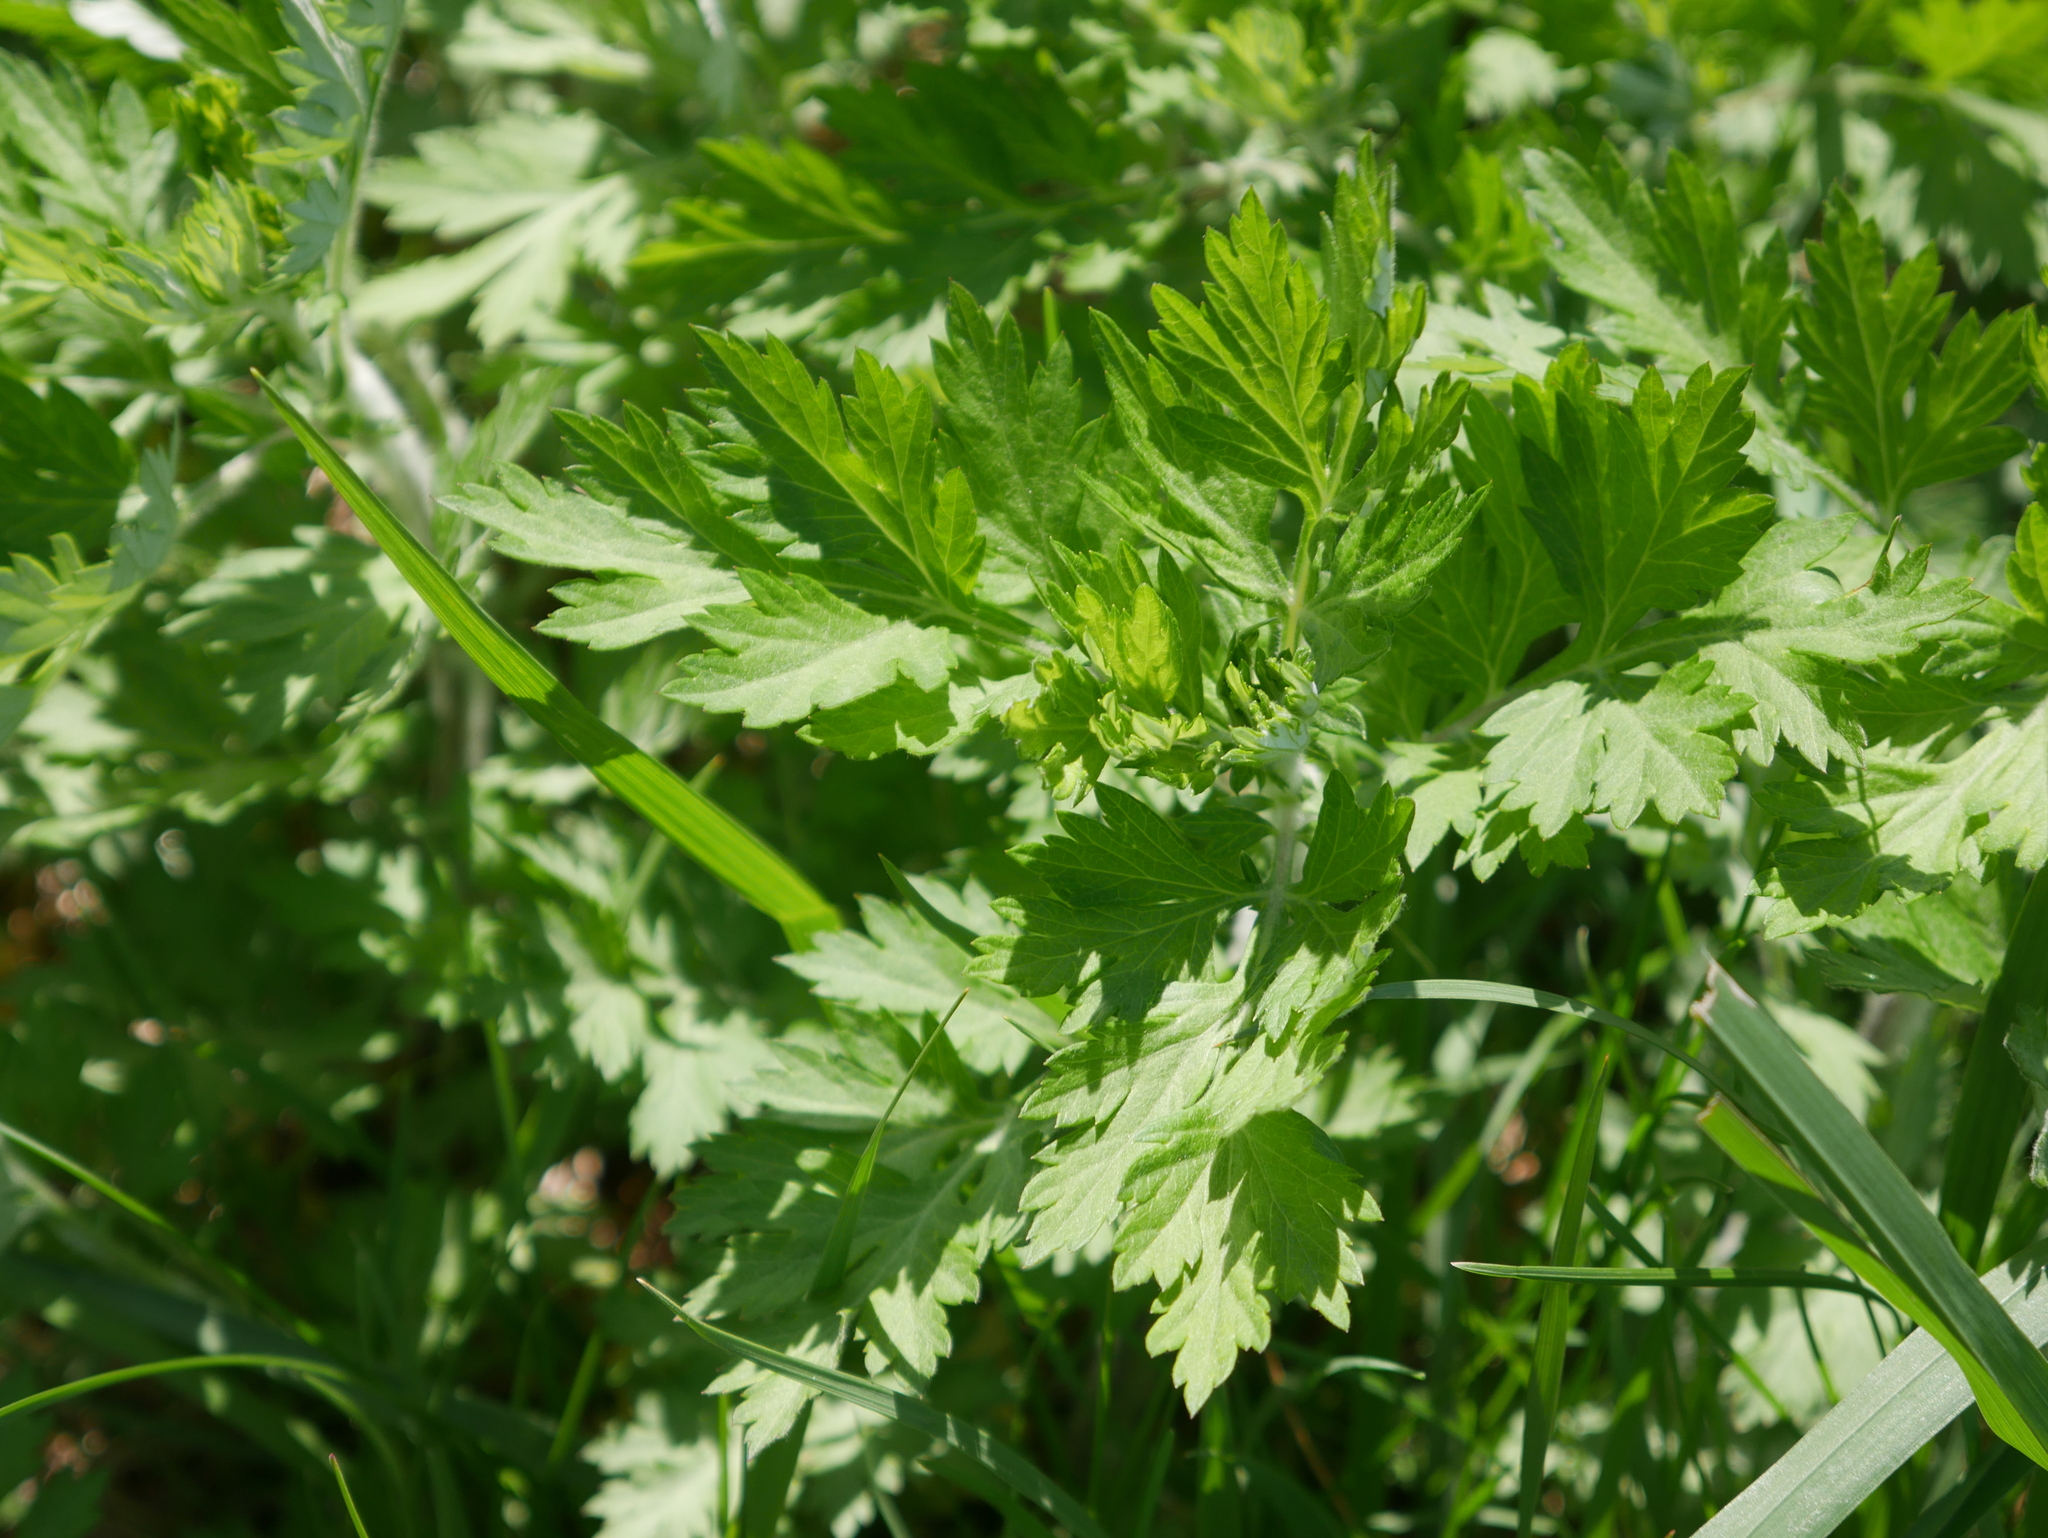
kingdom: Plantae
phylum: Tracheophyta
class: Magnoliopsida
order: Asterales
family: Asteraceae
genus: Artemisia
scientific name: Artemisia vulgaris
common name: Mugwort
